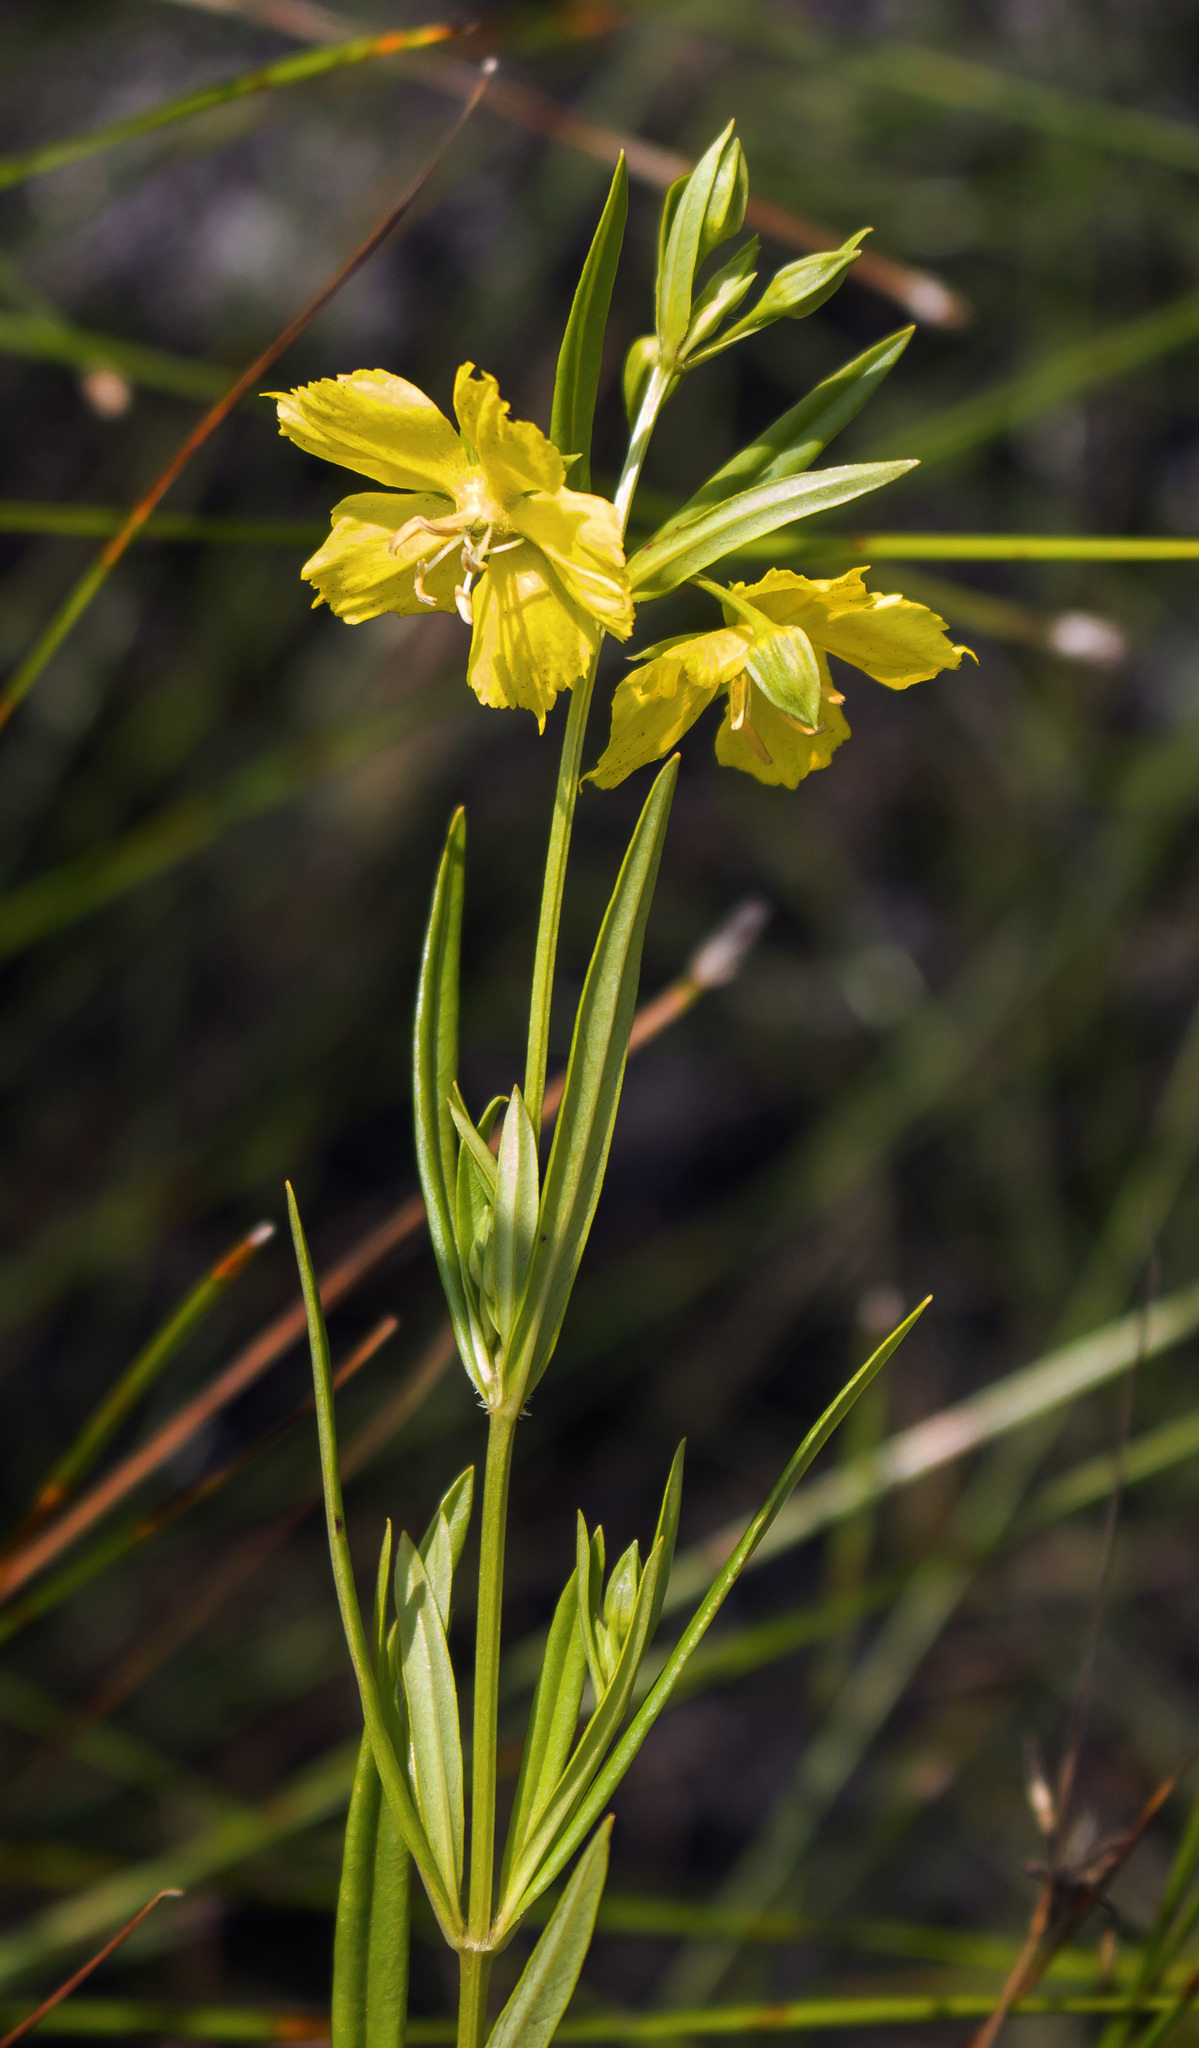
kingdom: Plantae
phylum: Tracheophyta
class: Magnoliopsida
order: Ericales
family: Primulaceae
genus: Lysimachia
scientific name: Lysimachia quadriflora
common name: Four-flowered loosestrife
